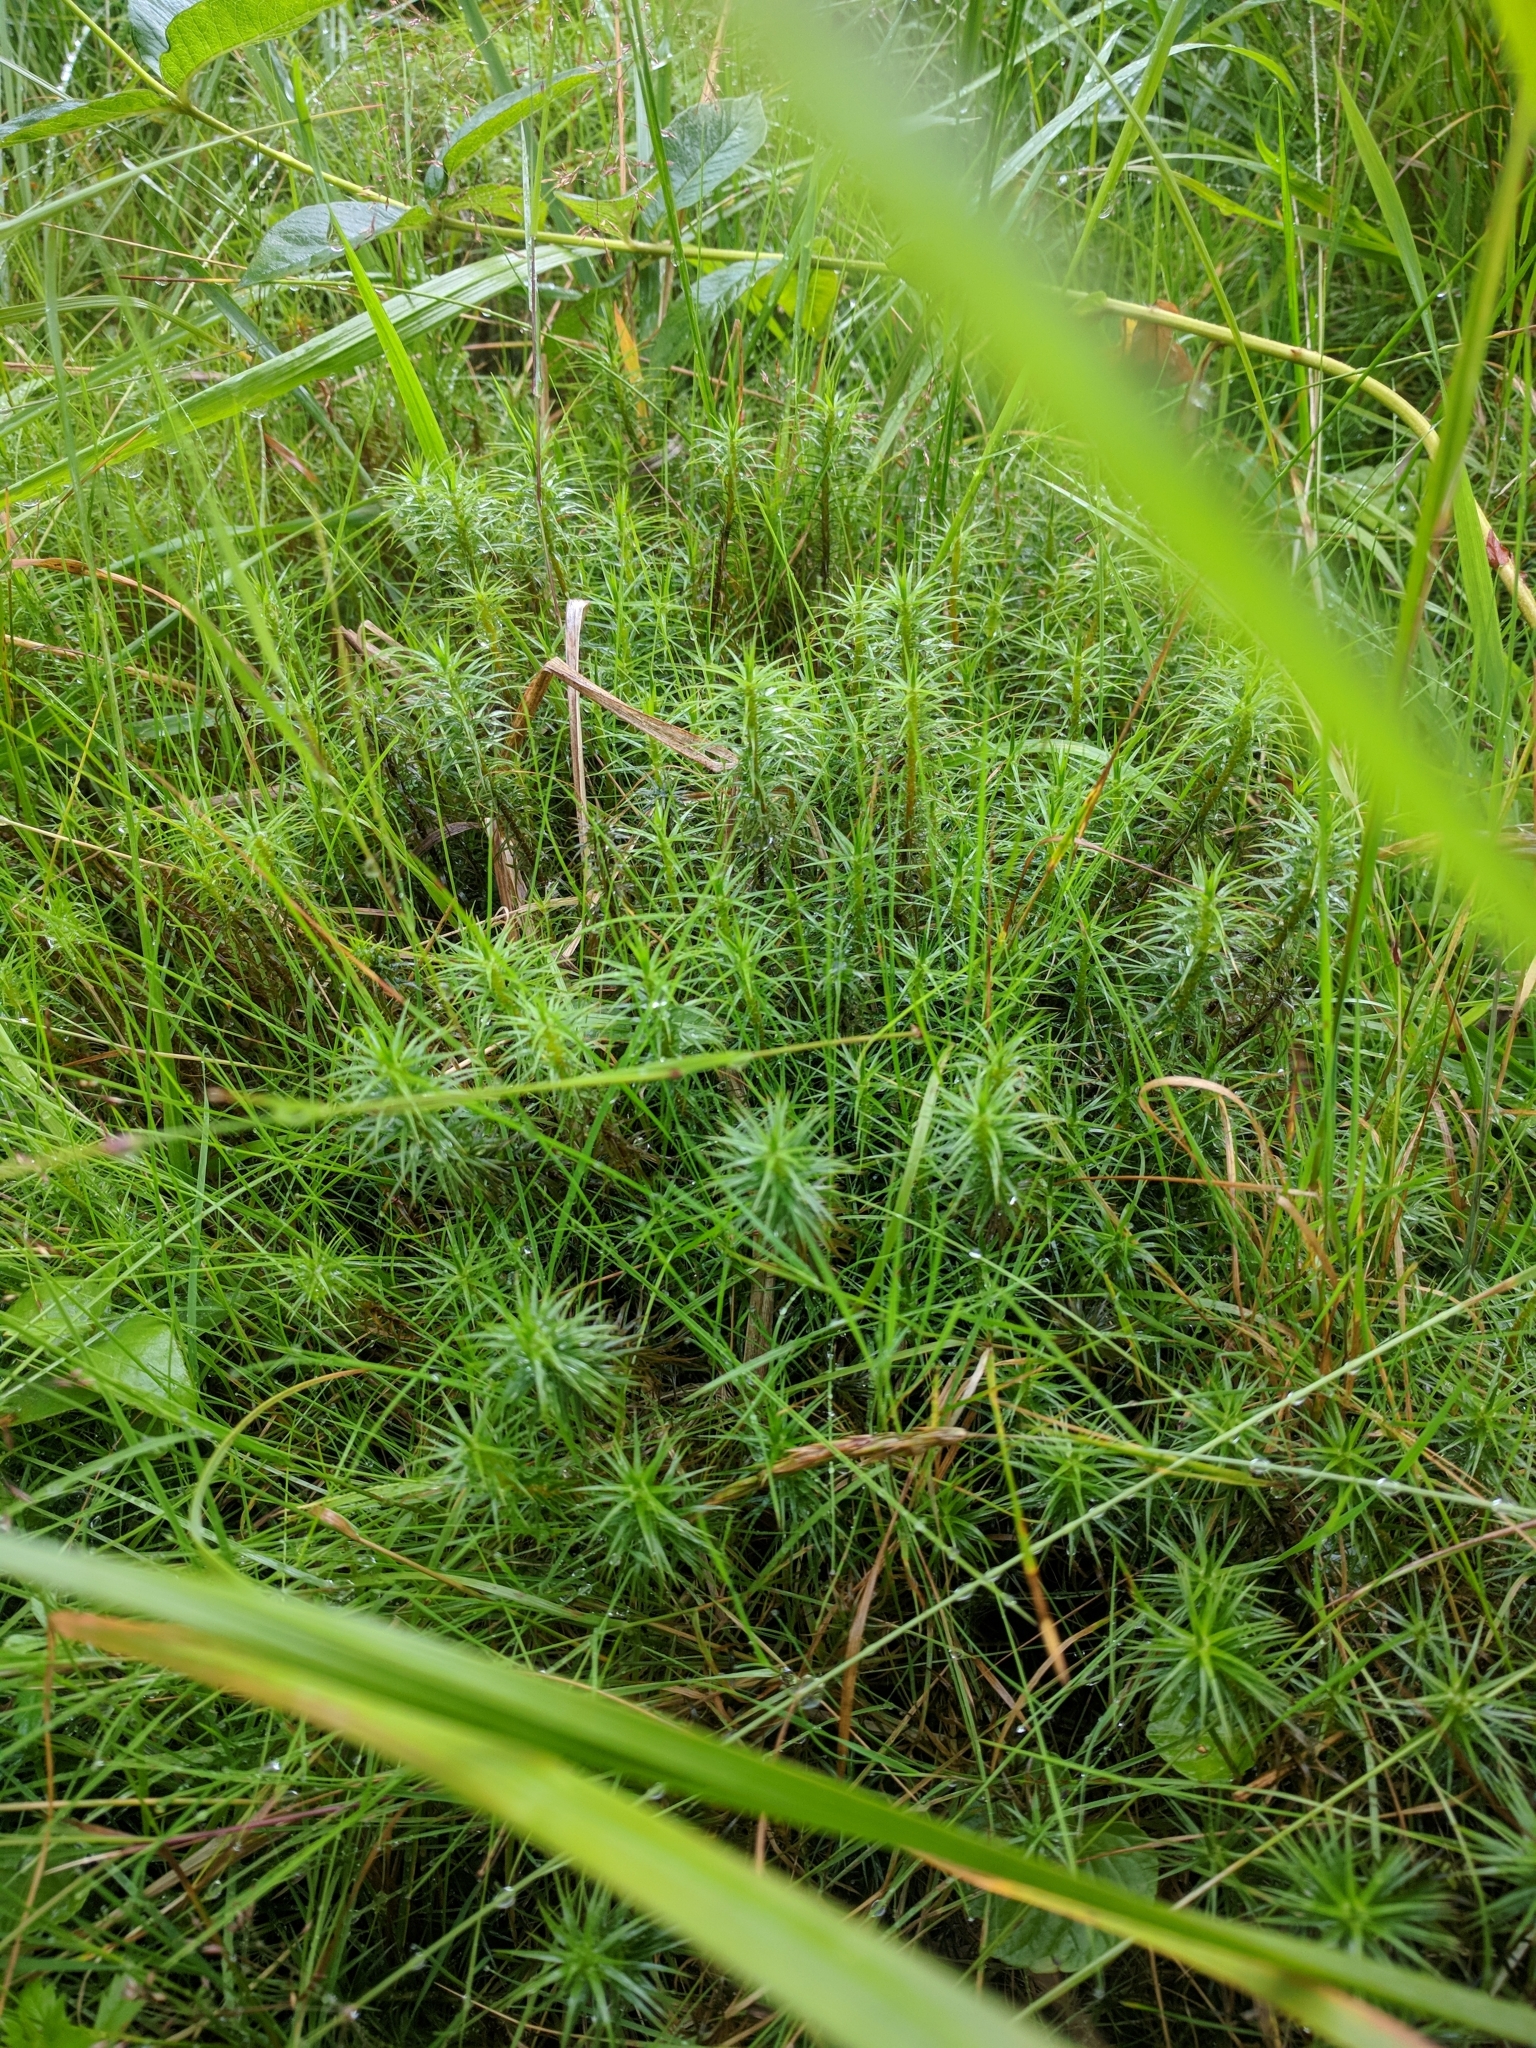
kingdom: Plantae
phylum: Bryophyta
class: Polytrichopsida
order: Polytrichales
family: Polytrichaceae
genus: Polytrichum
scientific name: Polytrichum commune
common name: Common haircap
